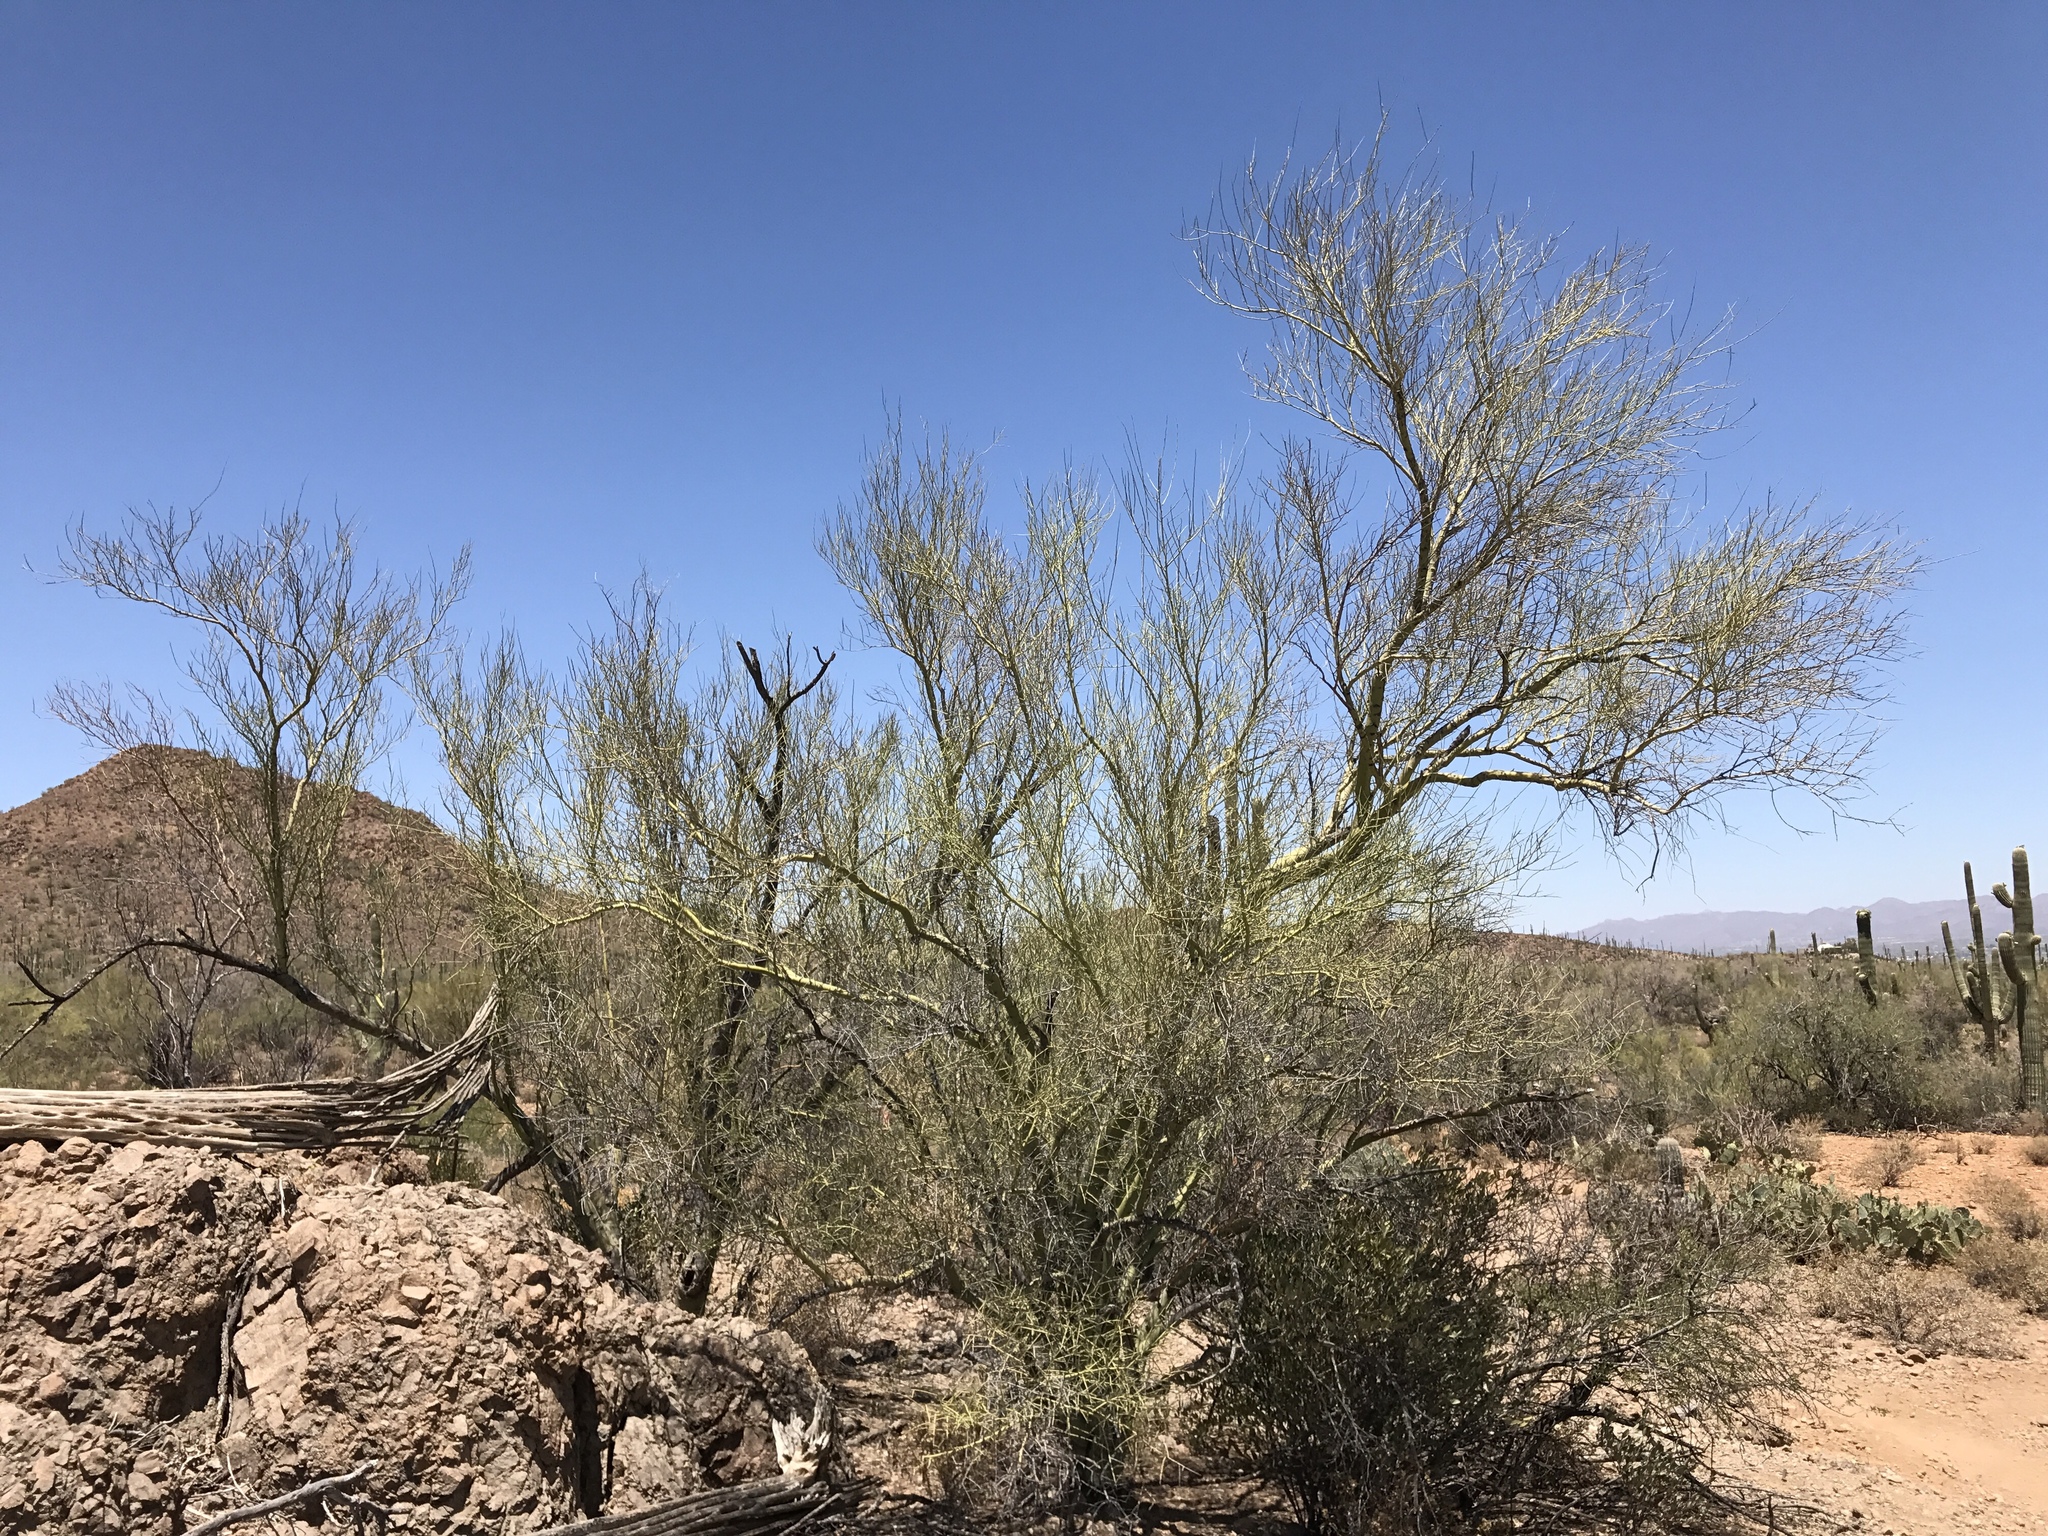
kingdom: Plantae
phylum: Tracheophyta
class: Magnoliopsida
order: Fabales
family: Fabaceae
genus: Parkinsonia
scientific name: Parkinsonia microphylla
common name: Yellow paloverde
